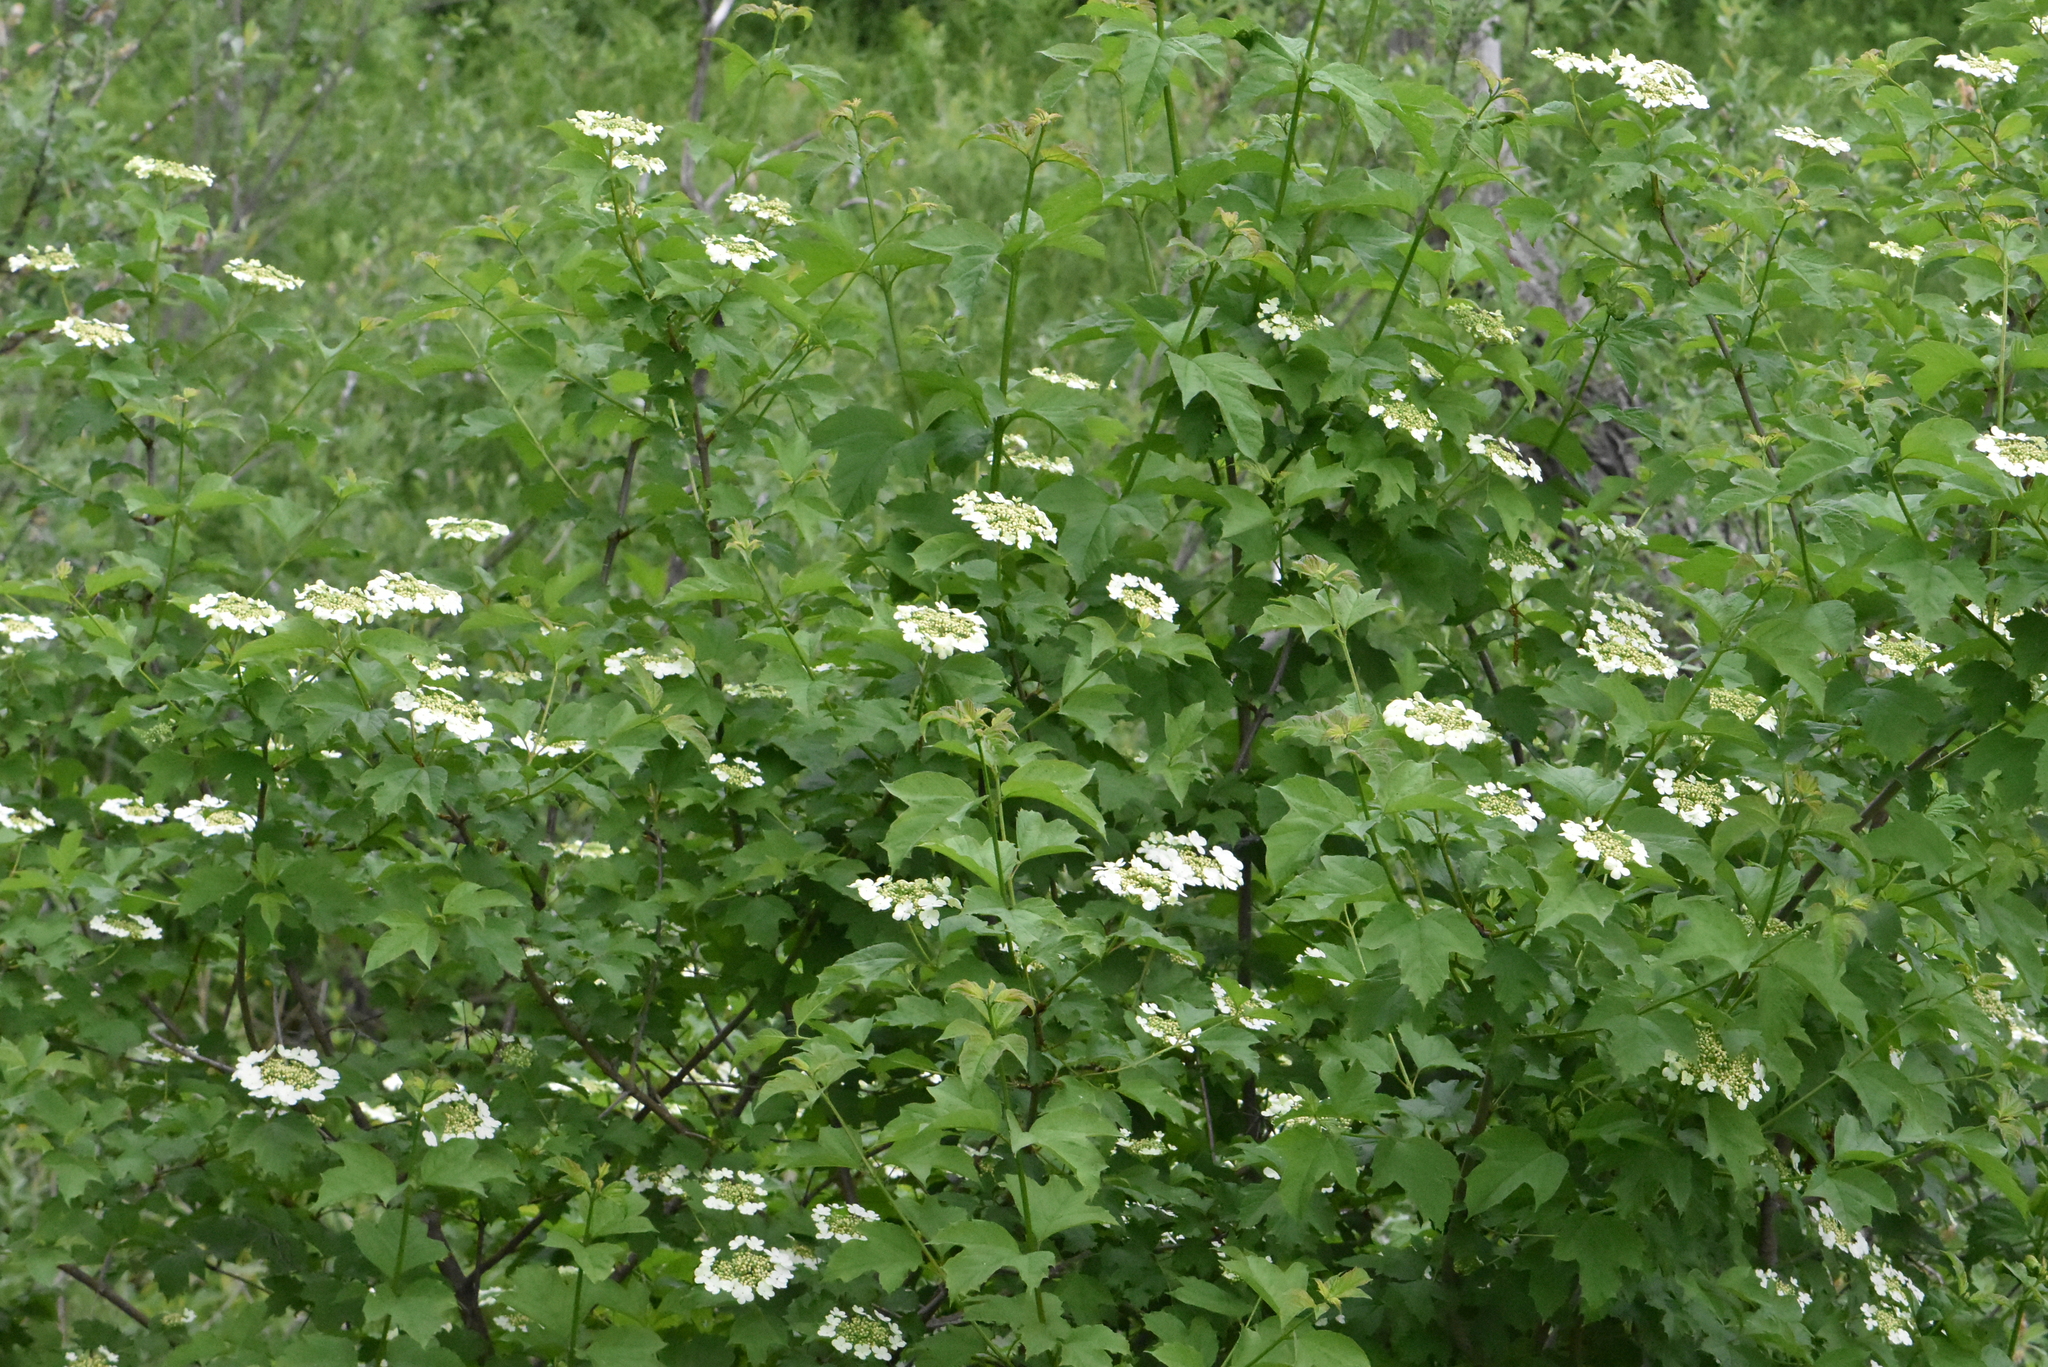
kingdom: Plantae
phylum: Tracheophyta
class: Magnoliopsida
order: Dipsacales
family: Viburnaceae
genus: Viburnum
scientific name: Viburnum opulus
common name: Guelder-rose
